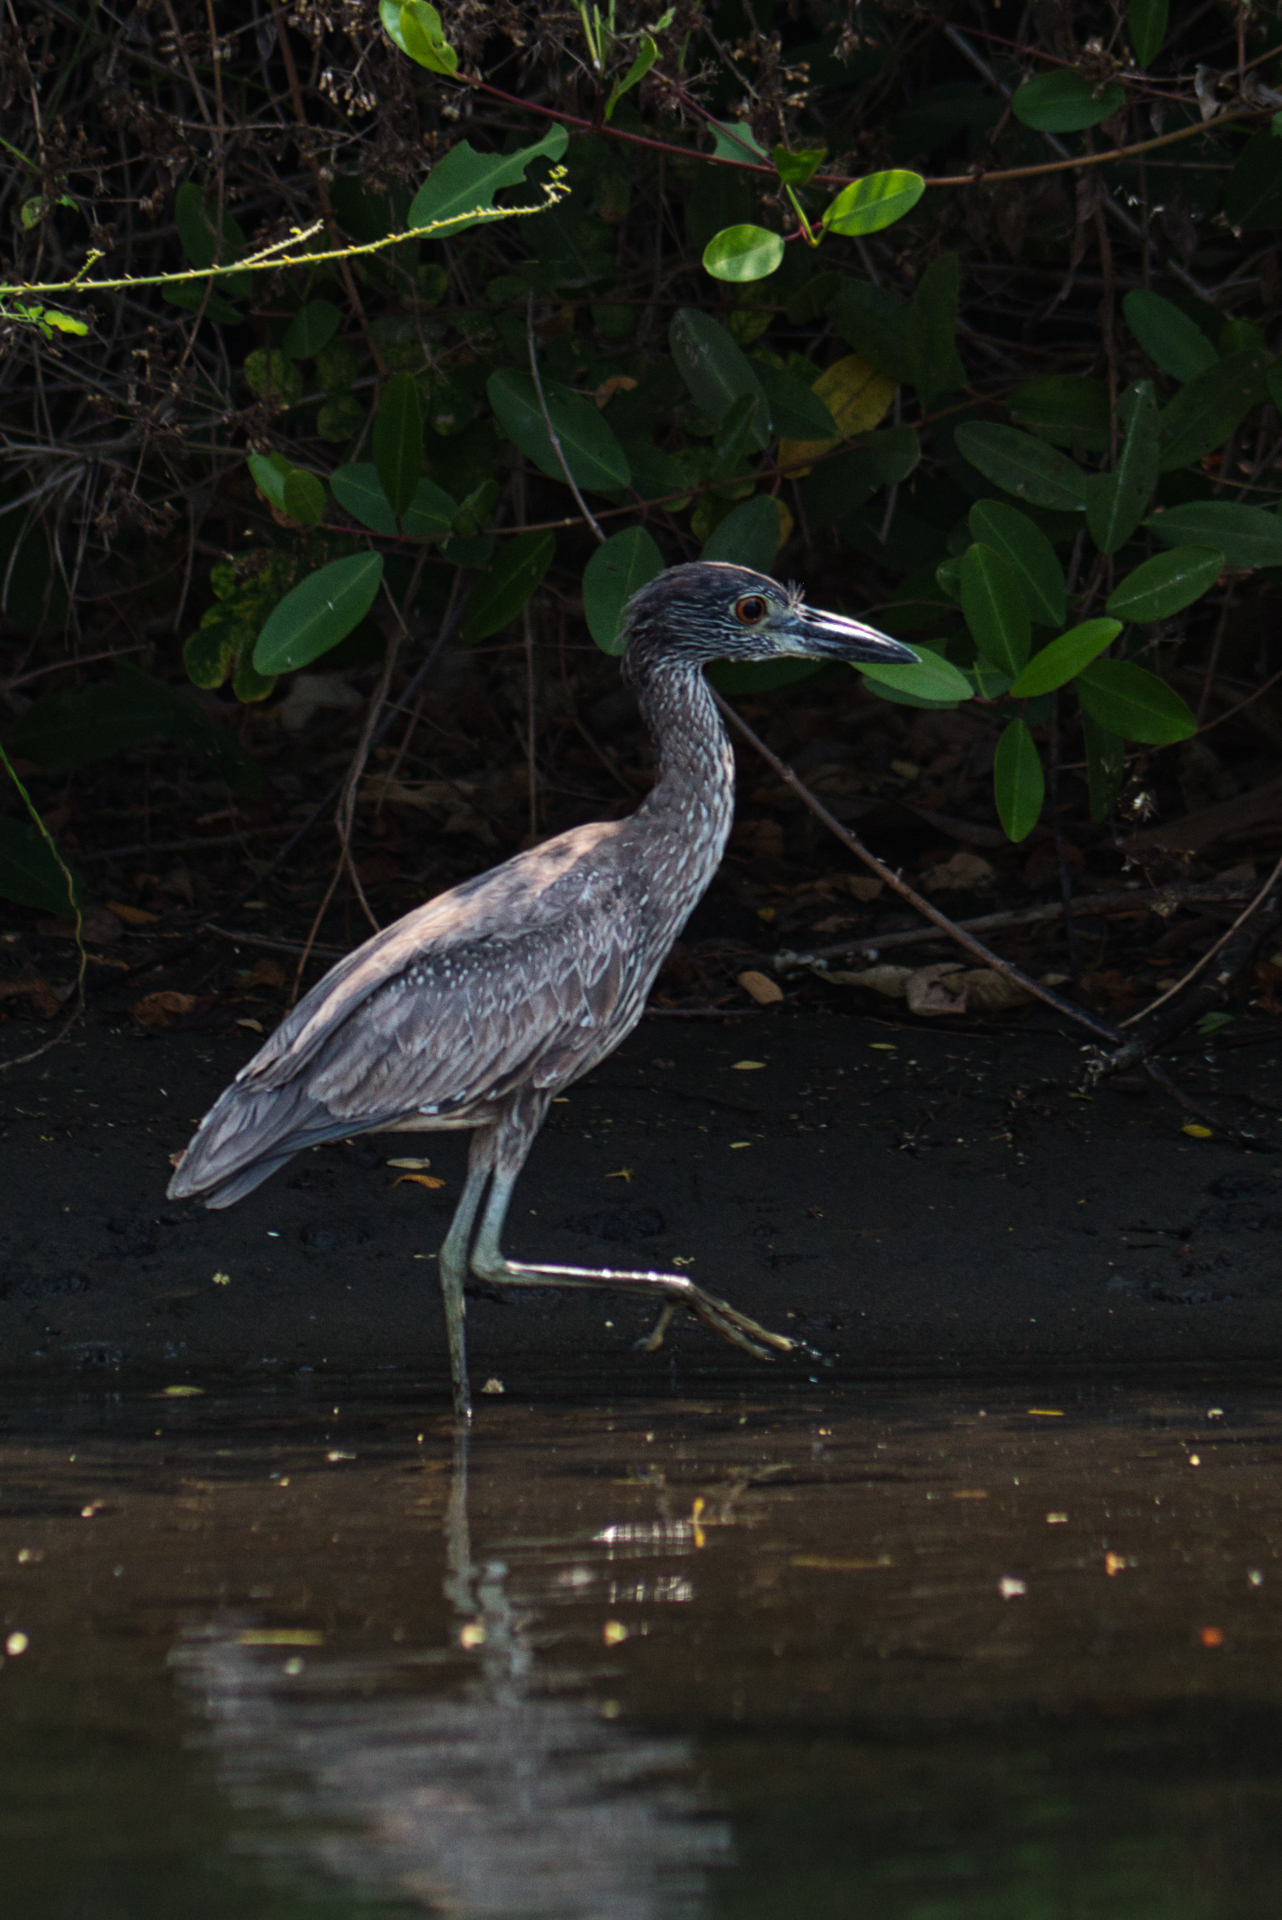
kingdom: Animalia
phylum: Chordata
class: Aves
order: Pelecaniformes
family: Ardeidae
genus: Nyctanassa
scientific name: Nyctanassa violacea
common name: Yellow-crowned night heron
